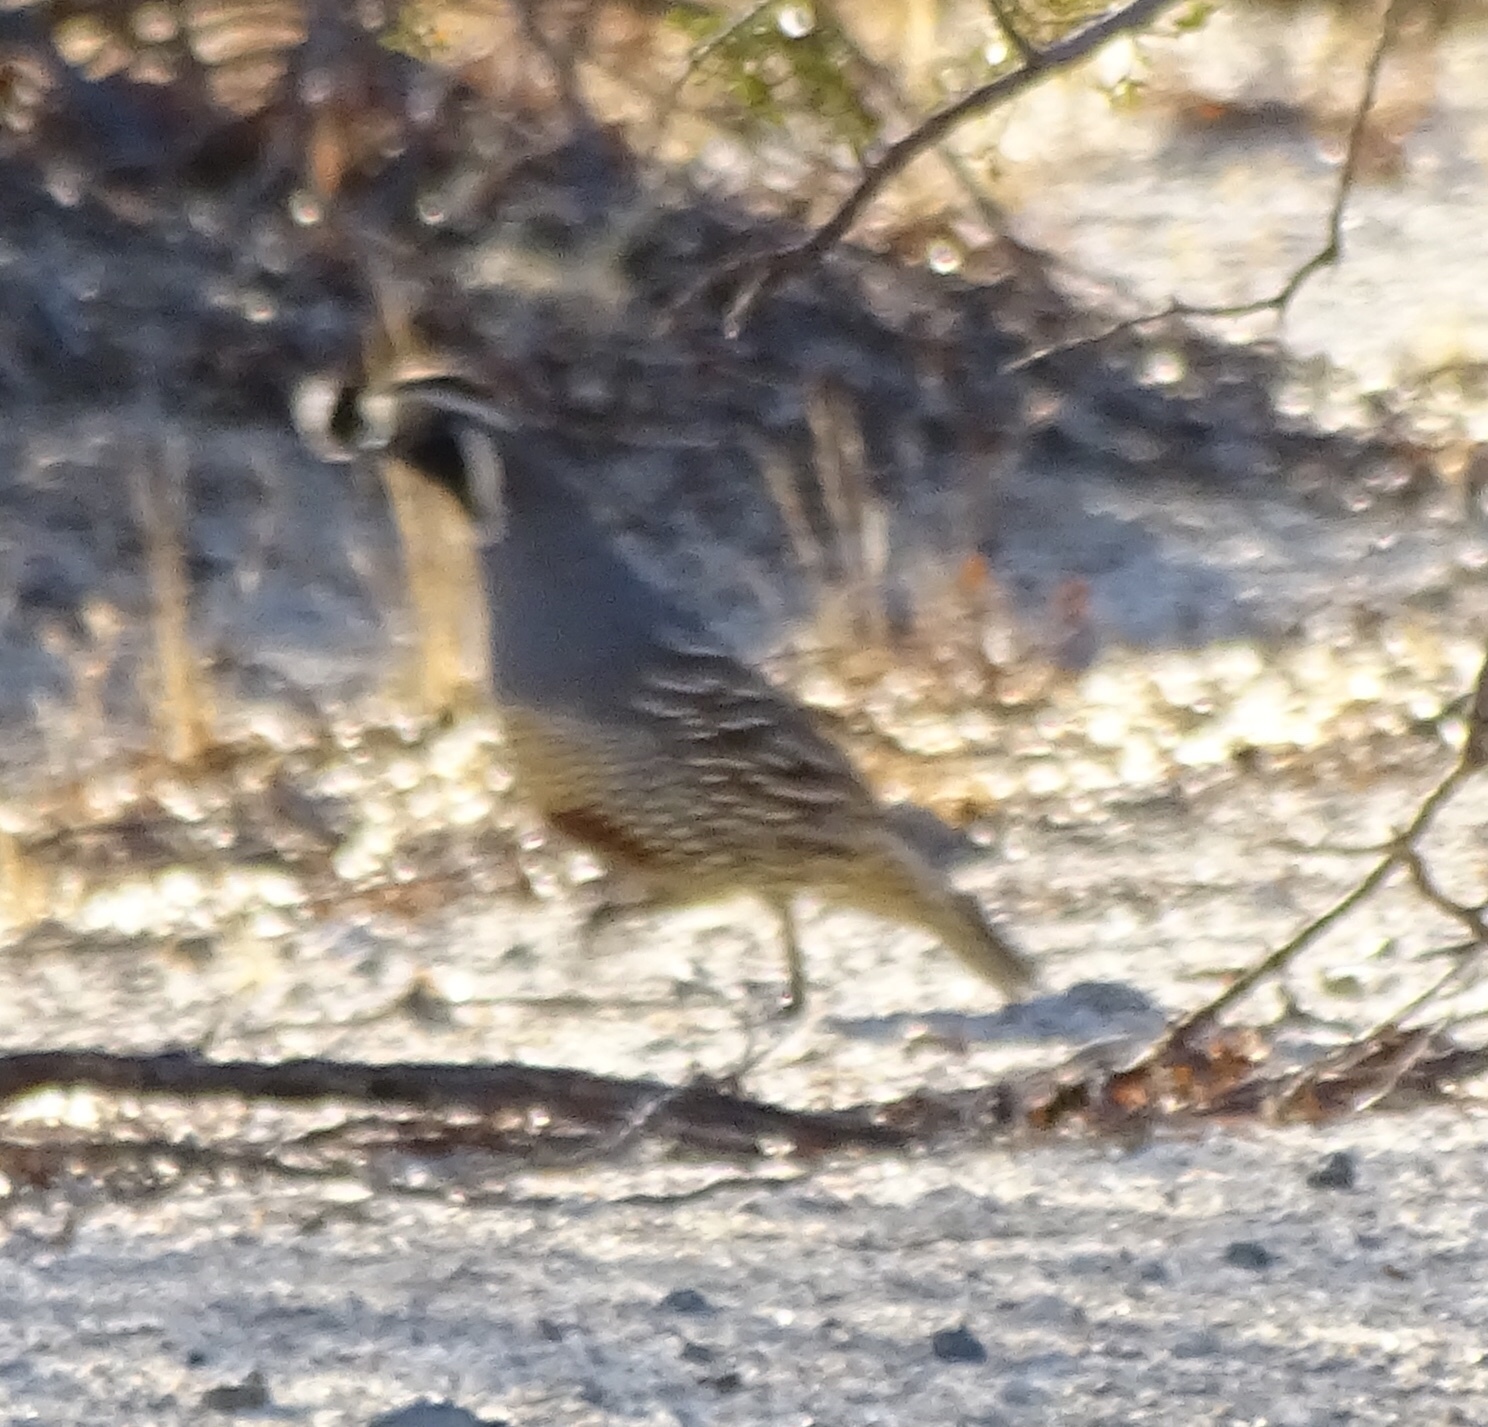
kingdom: Animalia
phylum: Chordata
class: Aves
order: Galliformes
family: Odontophoridae
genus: Callipepla
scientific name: Callipepla californica
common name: California quail
